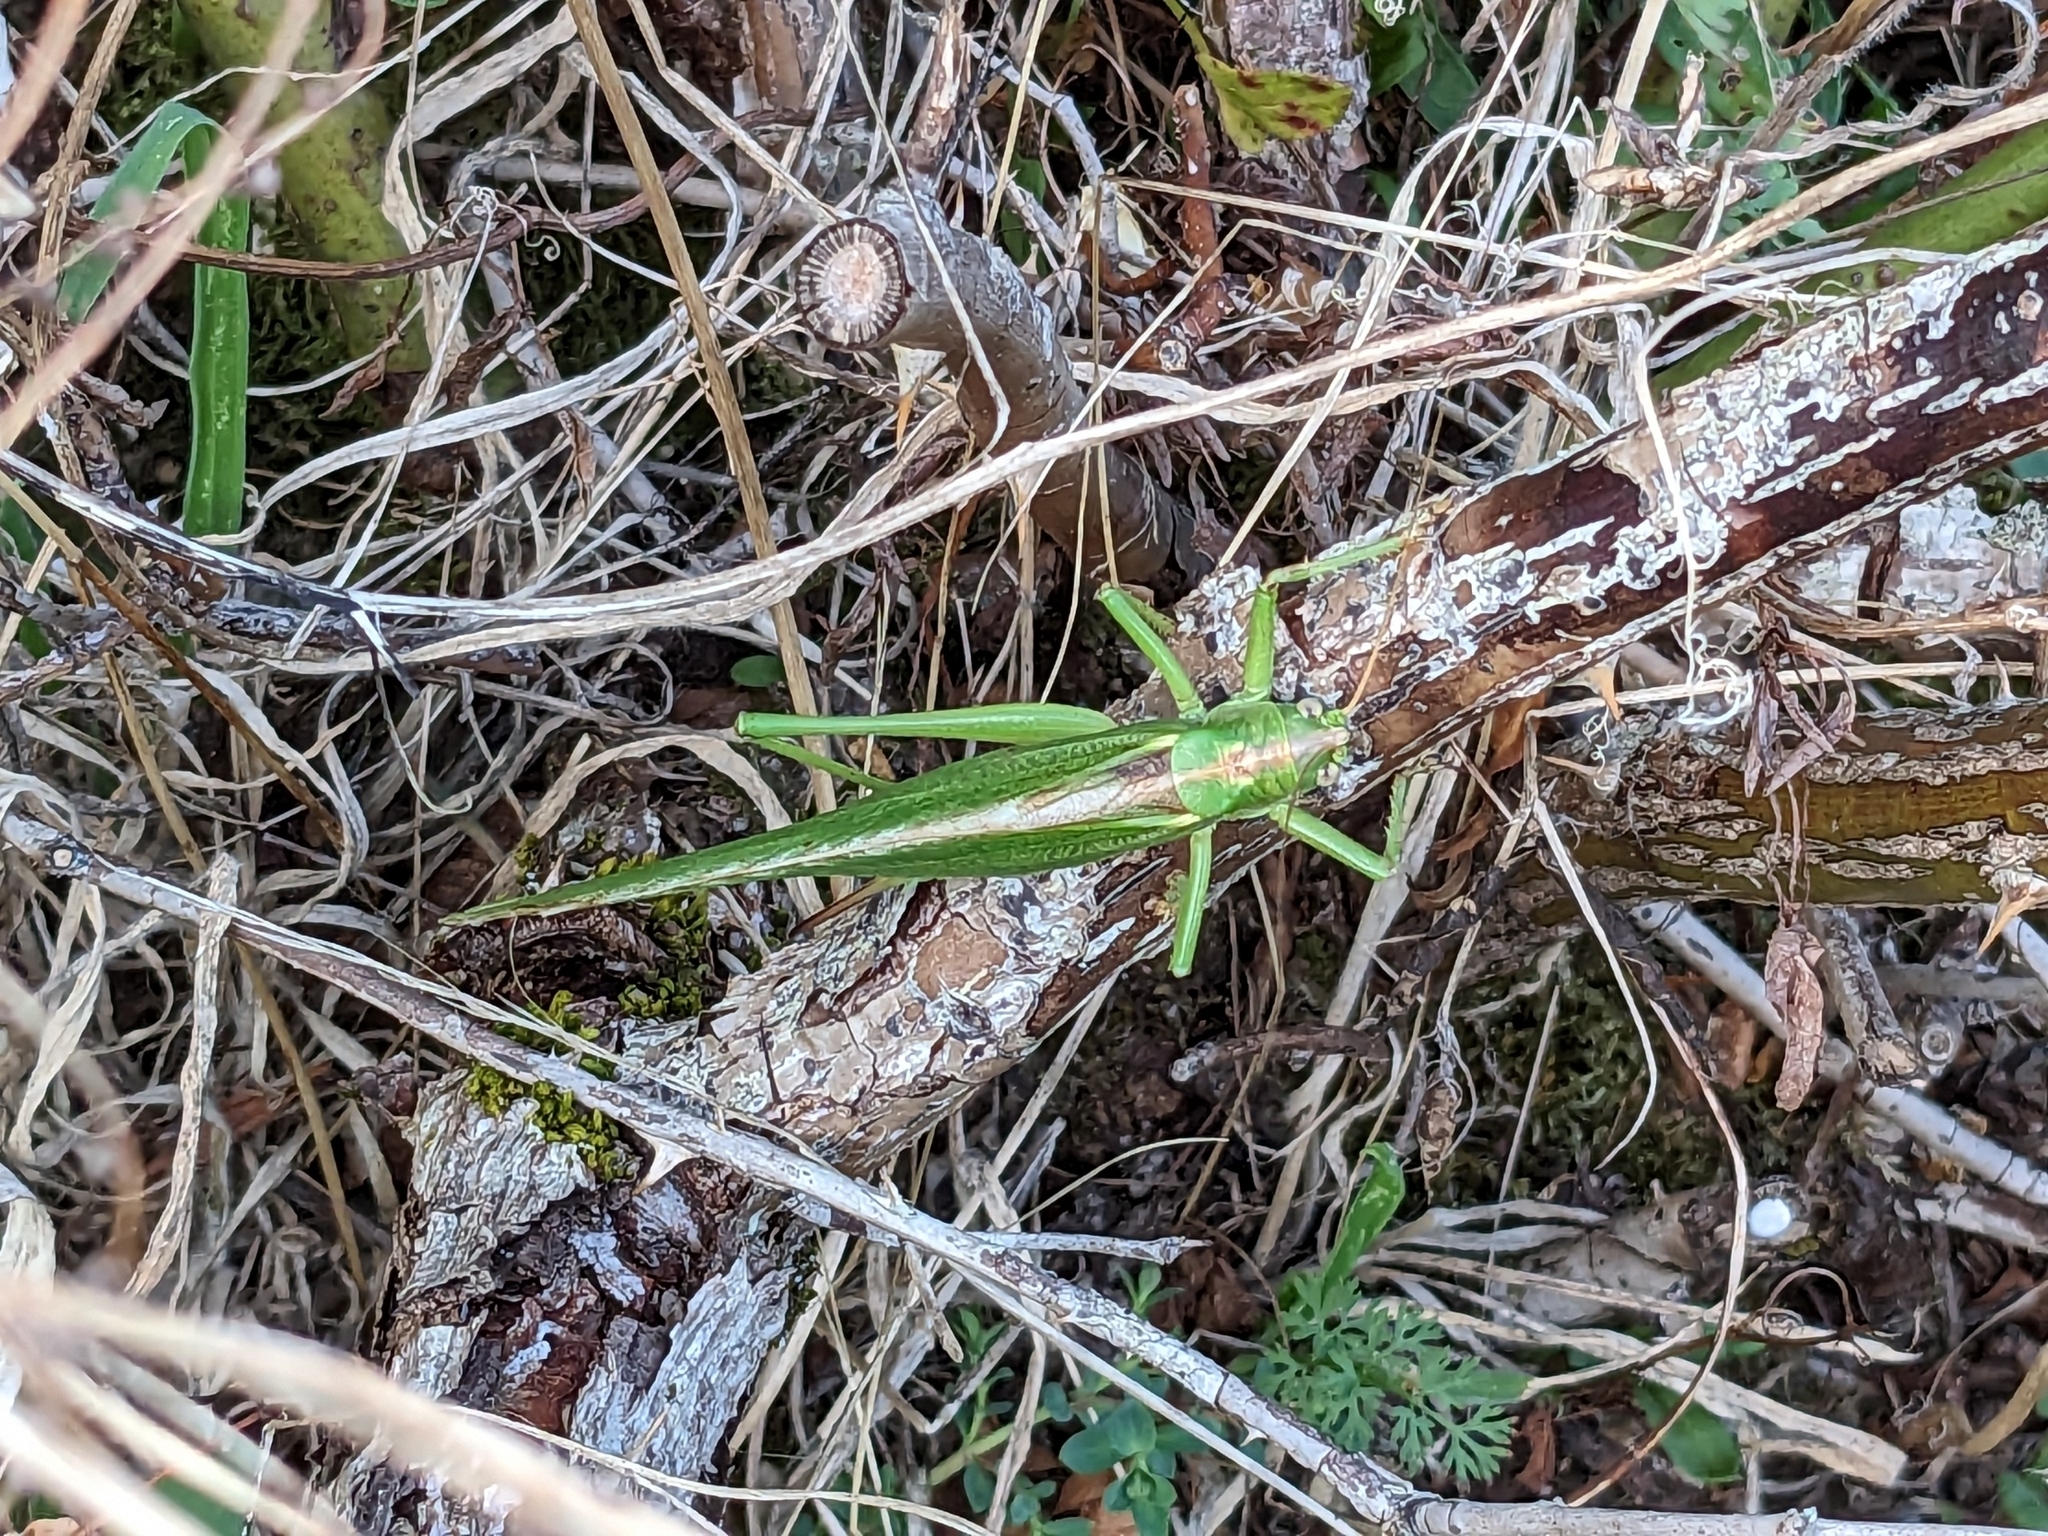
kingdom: Animalia
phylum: Arthropoda
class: Insecta
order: Orthoptera
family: Tettigoniidae
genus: Tettigonia
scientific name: Tettigonia viridissima
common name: Great green bush-cricket
